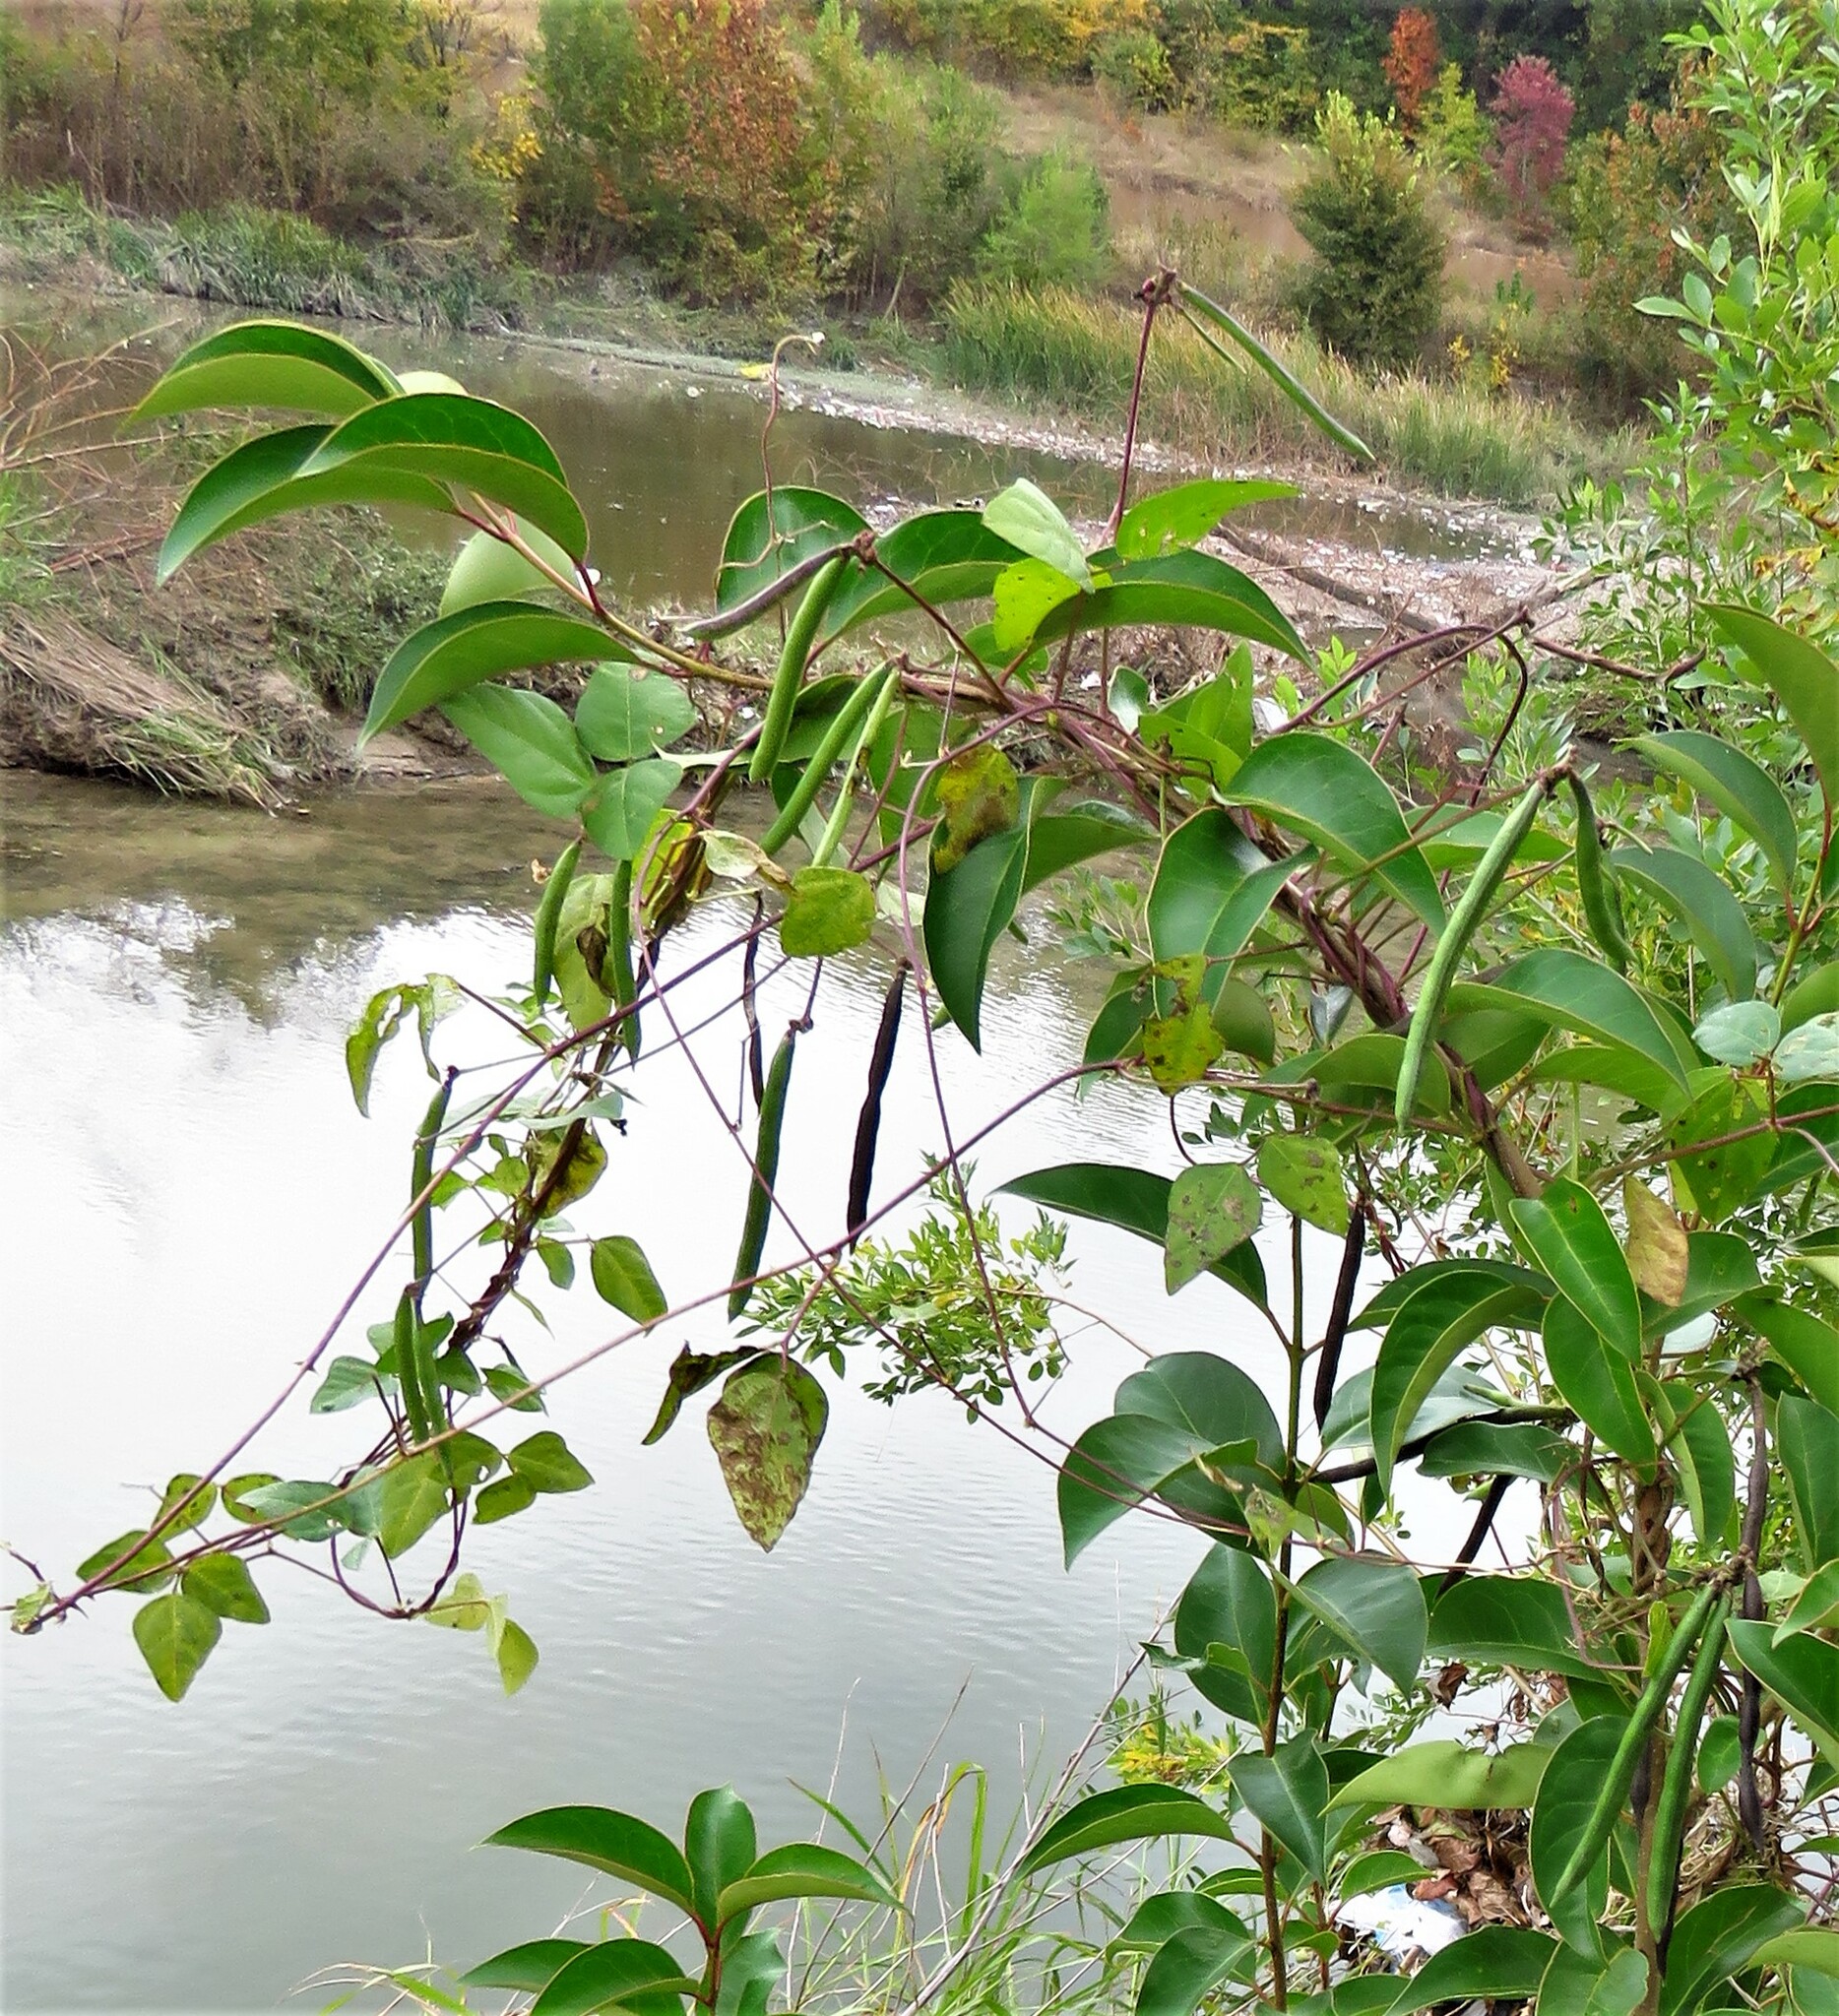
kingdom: Plantae
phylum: Tracheophyta
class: Magnoliopsida
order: Fabales
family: Fabaceae
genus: Strophostyles
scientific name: Strophostyles helvola
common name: Trailing wild bean
